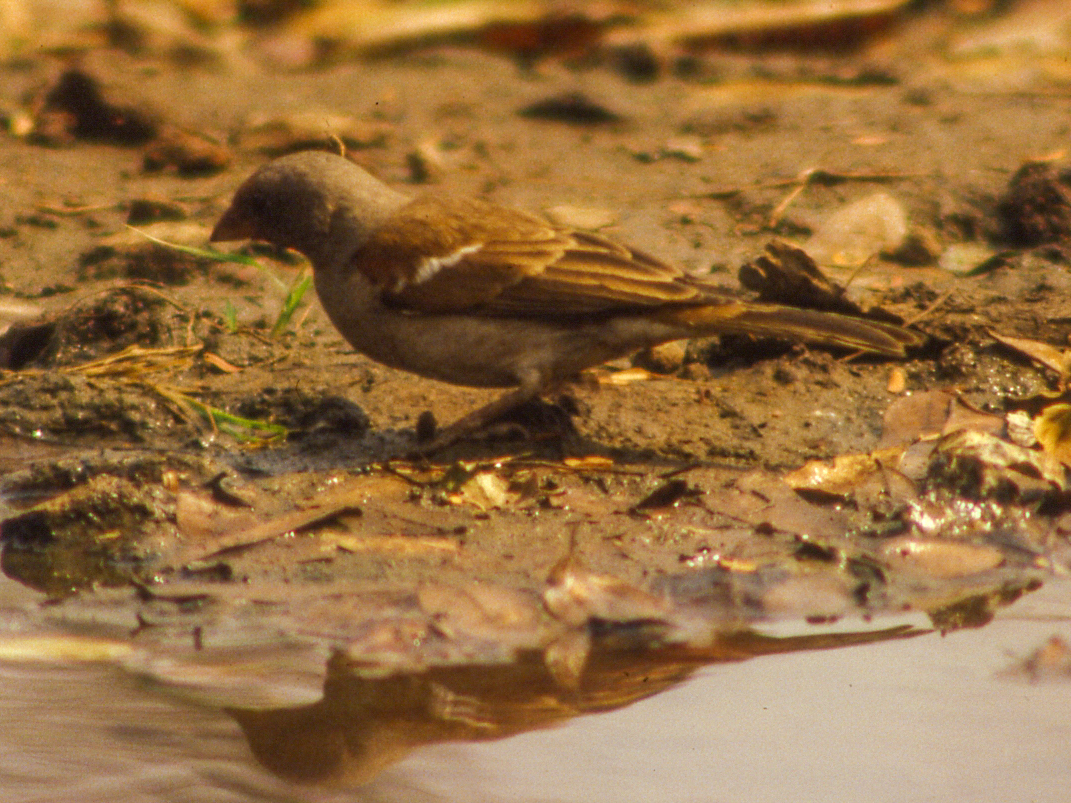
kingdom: Animalia
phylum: Chordata
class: Aves
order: Passeriformes
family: Passeridae
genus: Passer
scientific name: Passer diffusus
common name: Southern grey-headed sparrow
